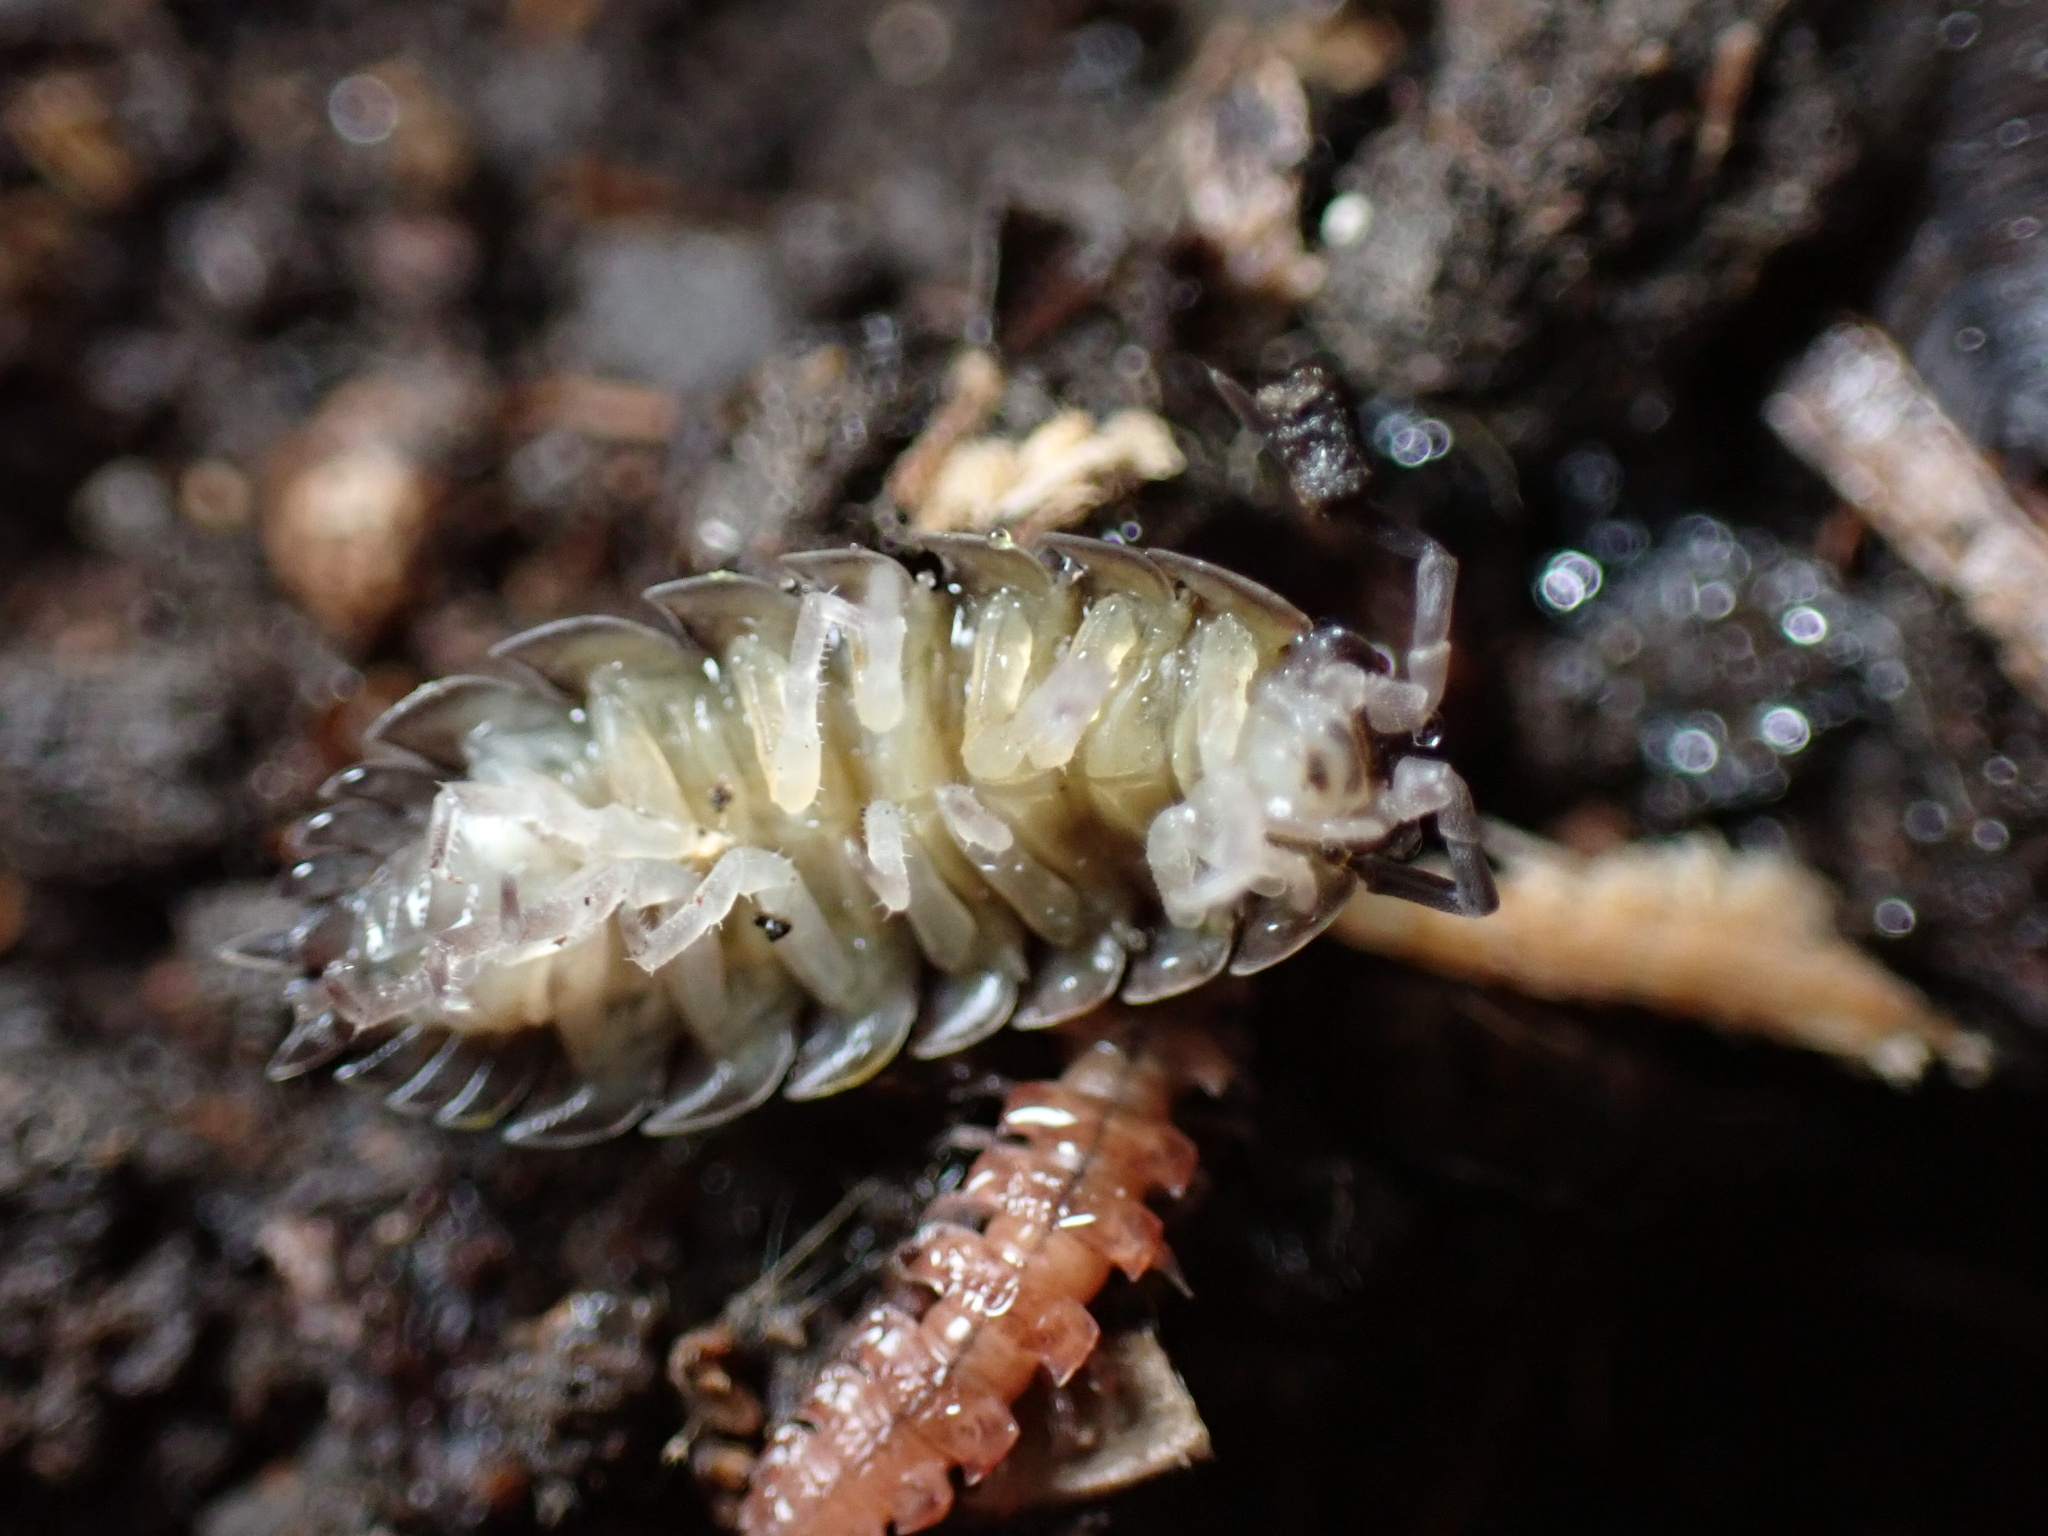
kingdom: Animalia
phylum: Arthropoda
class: Malacostraca
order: Isopoda
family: Porcellionidae
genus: Porcellio
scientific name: Porcellio scaber
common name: Common rough woodlouse
